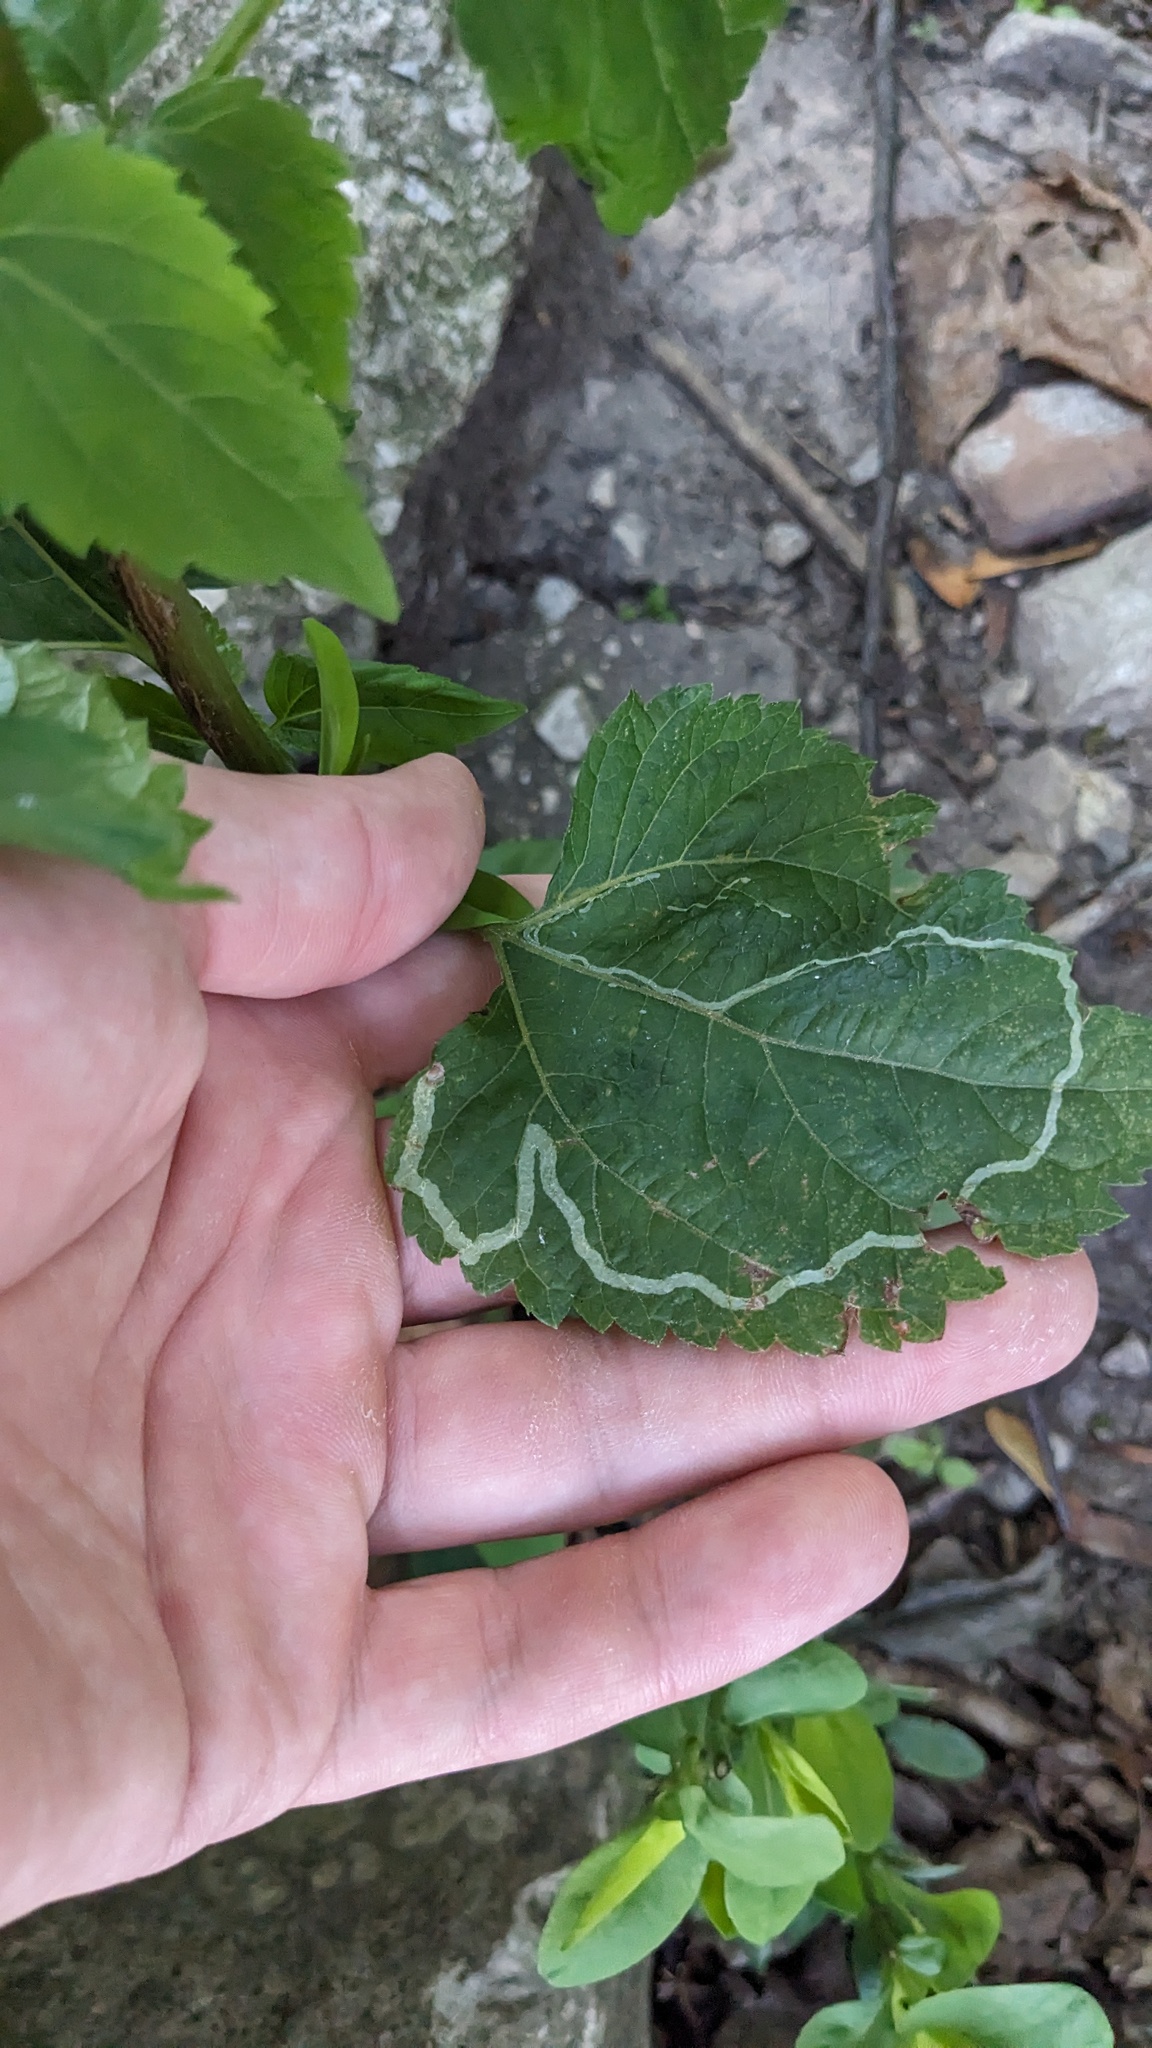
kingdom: Animalia
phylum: Arthropoda
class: Insecta
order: Diptera
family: Agromyzidae
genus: Liriomyza
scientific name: Liriomyza
